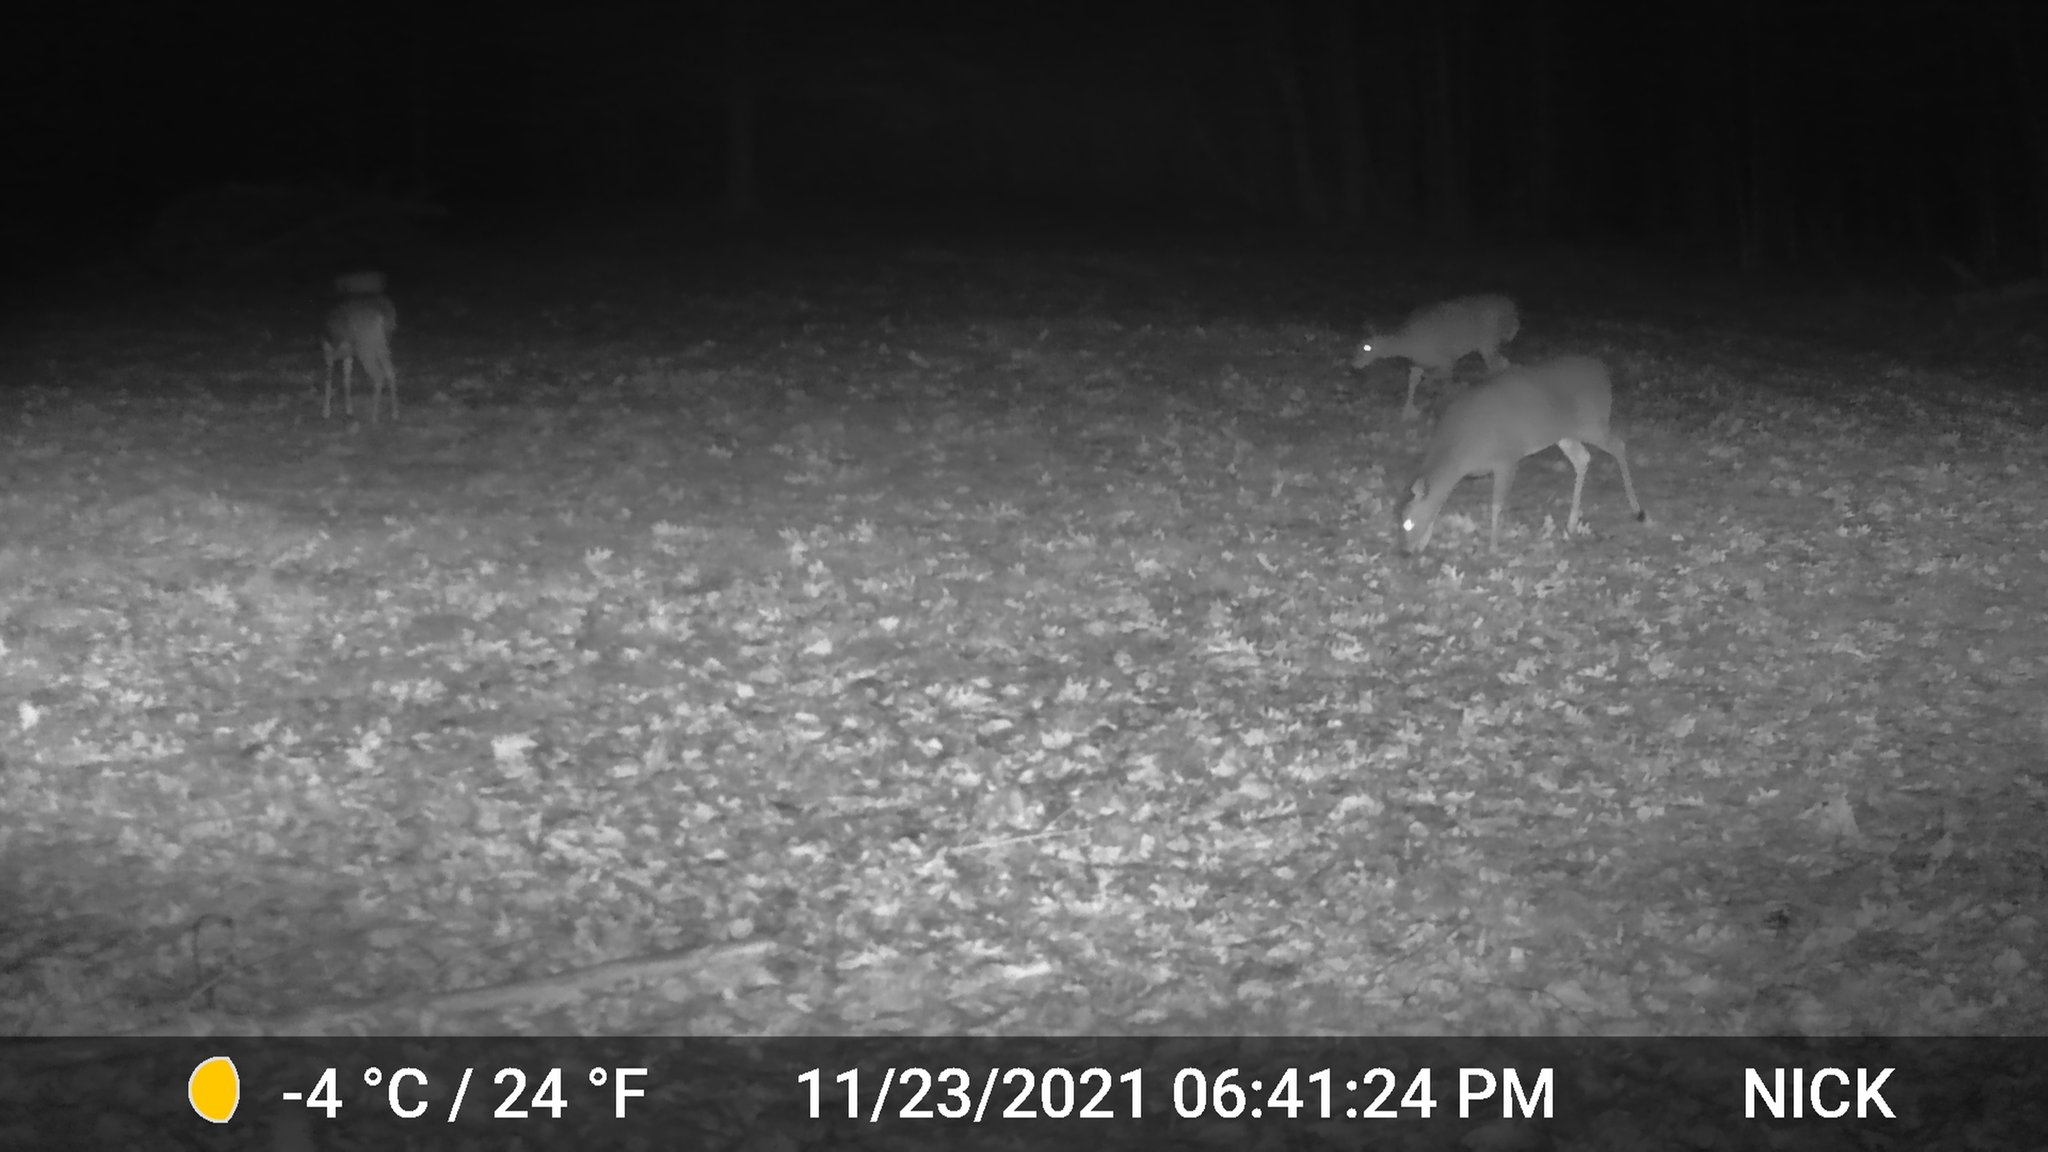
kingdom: Animalia
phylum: Chordata
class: Mammalia
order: Artiodactyla
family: Cervidae
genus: Odocoileus
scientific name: Odocoileus virginianus
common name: White-tailed deer
